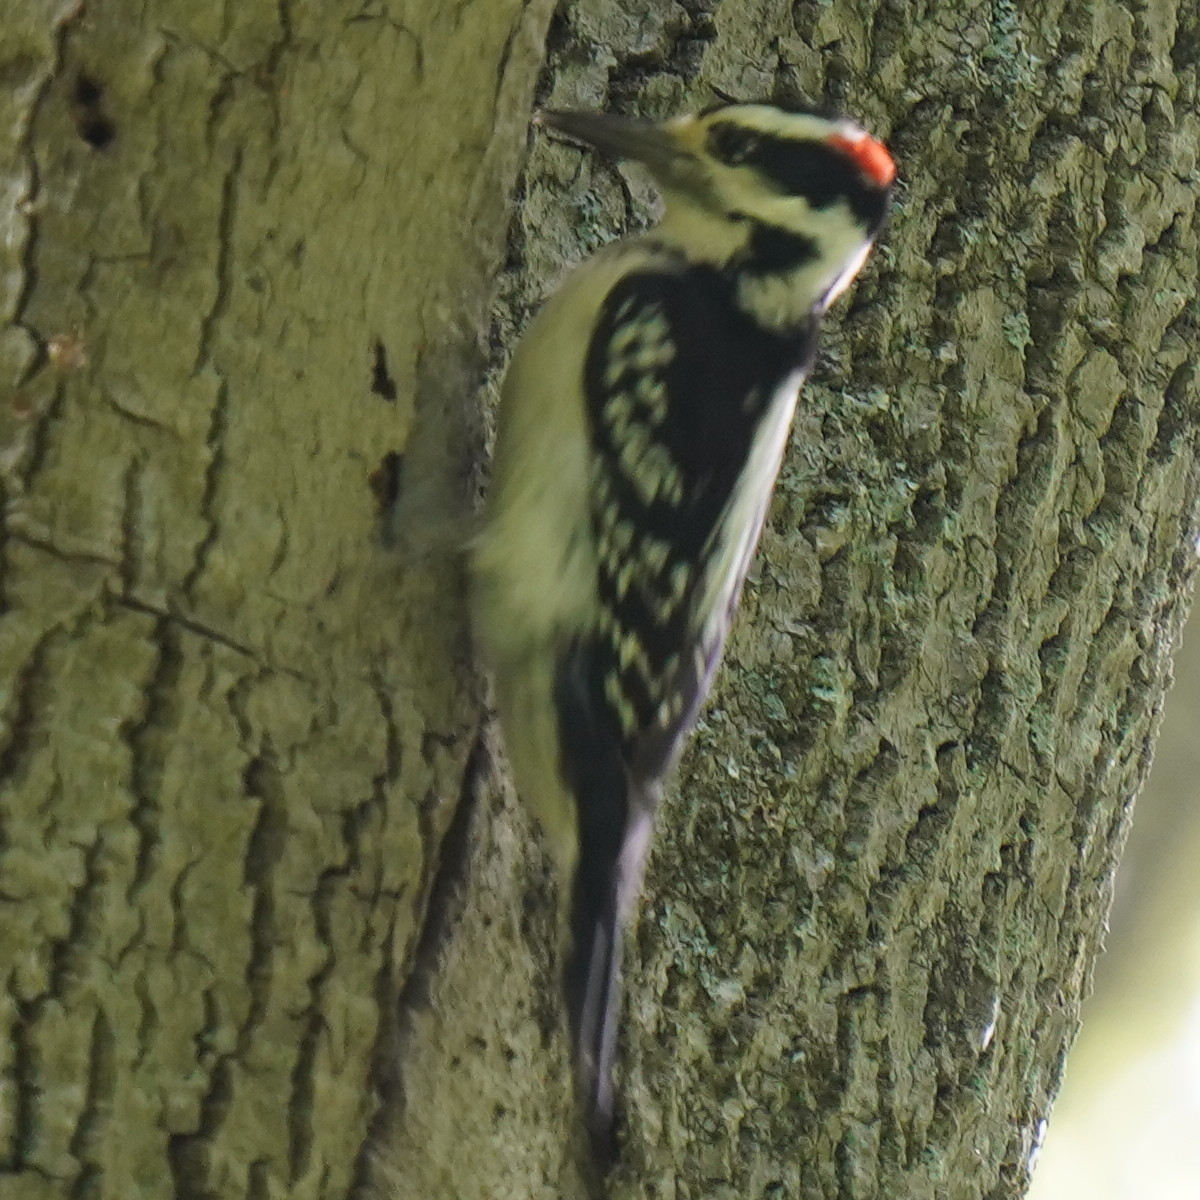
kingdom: Animalia
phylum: Chordata
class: Aves
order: Piciformes
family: Picidae
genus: Leuconotopicus
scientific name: Leuconotopicus villosus
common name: Hairy woodpecker
